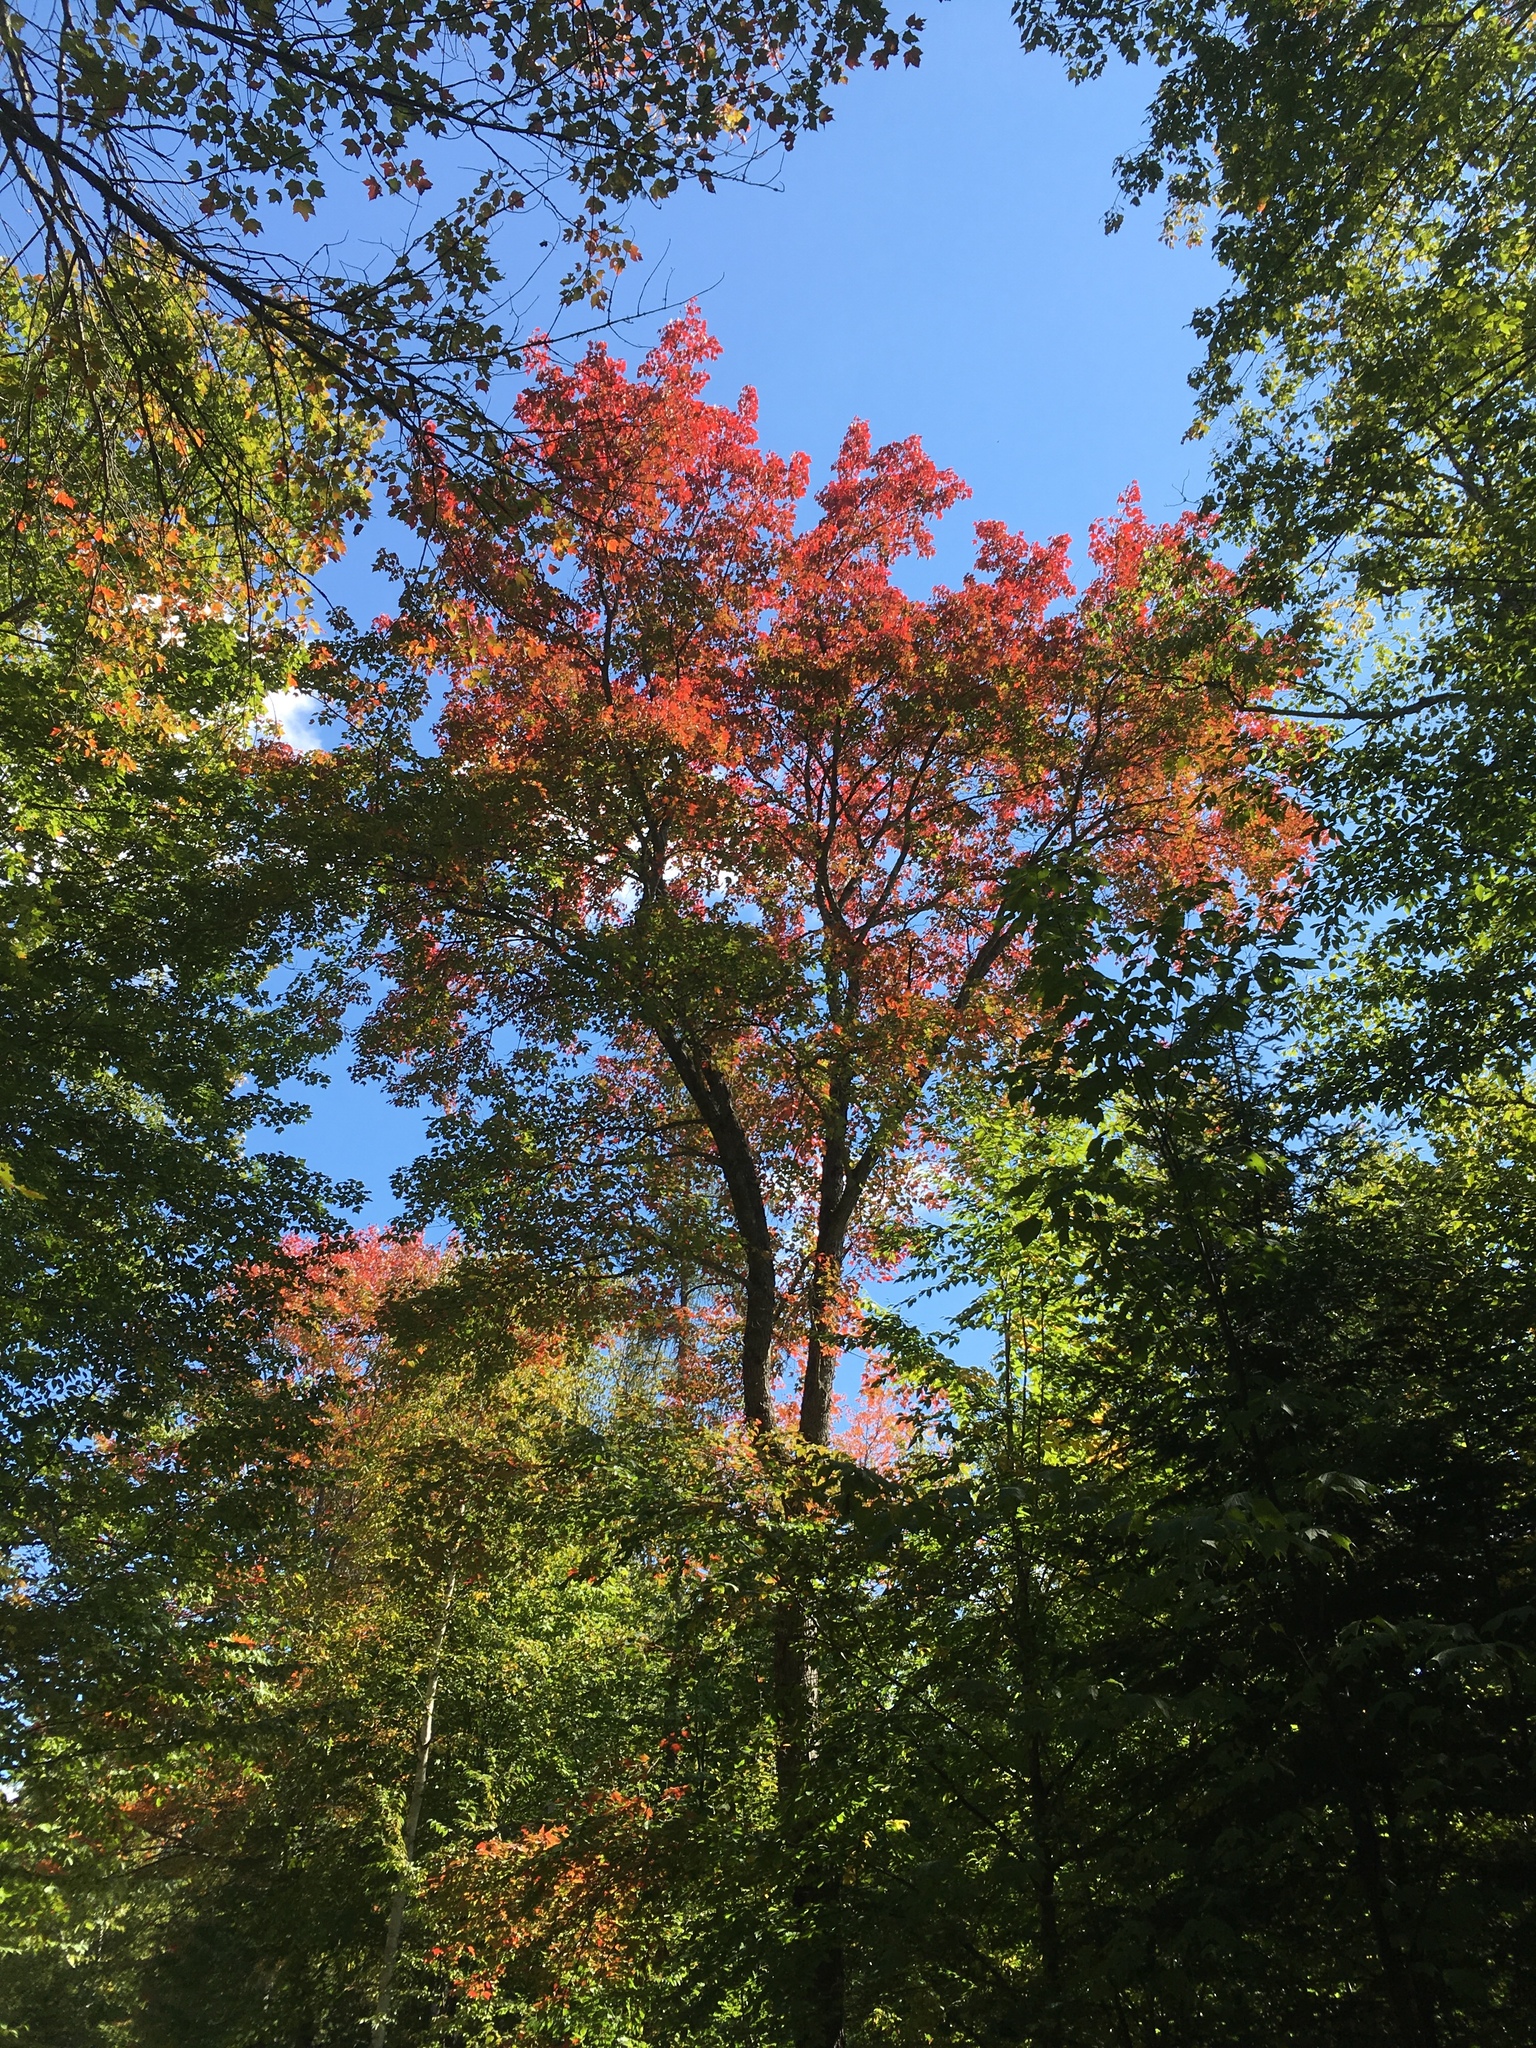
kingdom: Plantae
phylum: Tracheophyta
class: Magnoliopsida
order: Sapindales
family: Sapindaceae
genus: Acer
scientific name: Acer rubrum
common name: Red maple
